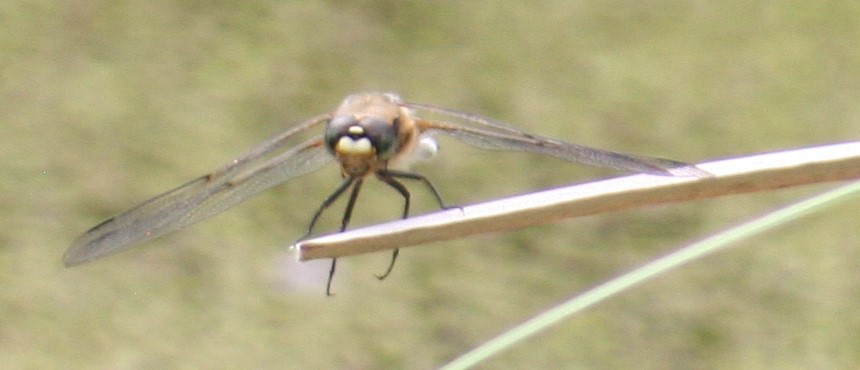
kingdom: Animalia
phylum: Arthropoda
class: Insecta
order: Odonata
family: Libellulidae
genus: Libellula
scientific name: Libellula quadrimaculata
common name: Four-spotted chaser
